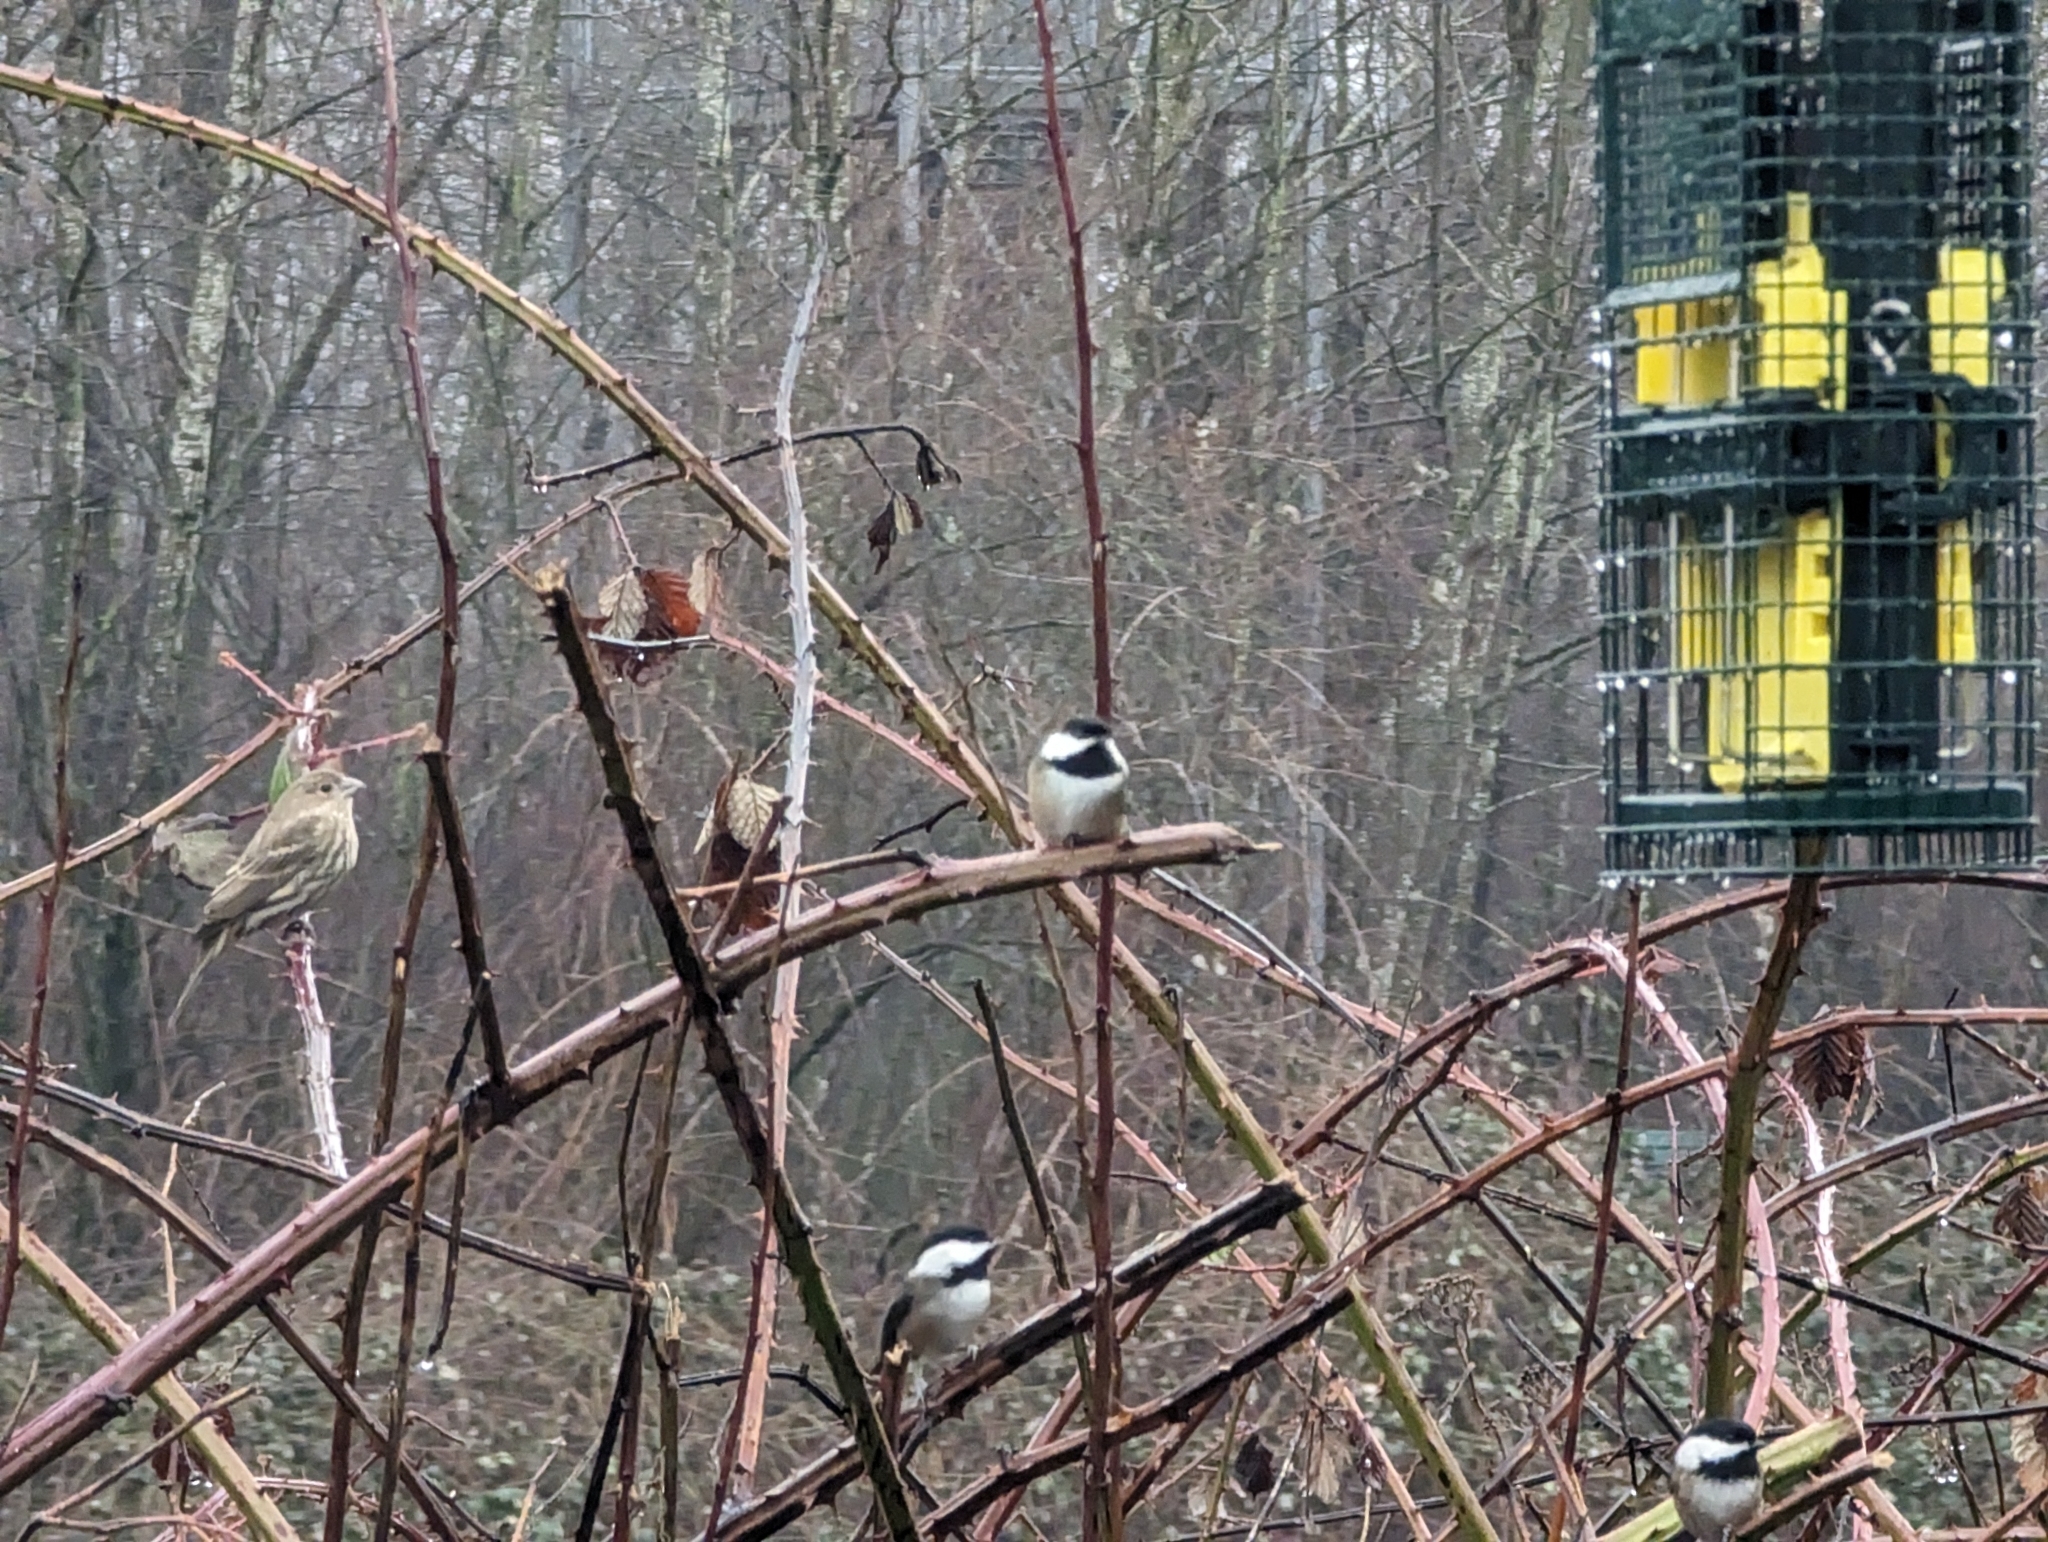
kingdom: Animalia
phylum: Chordata
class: Aves
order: Passeriformes
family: Paridae
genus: Poecile
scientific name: Poecile atricapillus
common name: Black-capped chickadee
